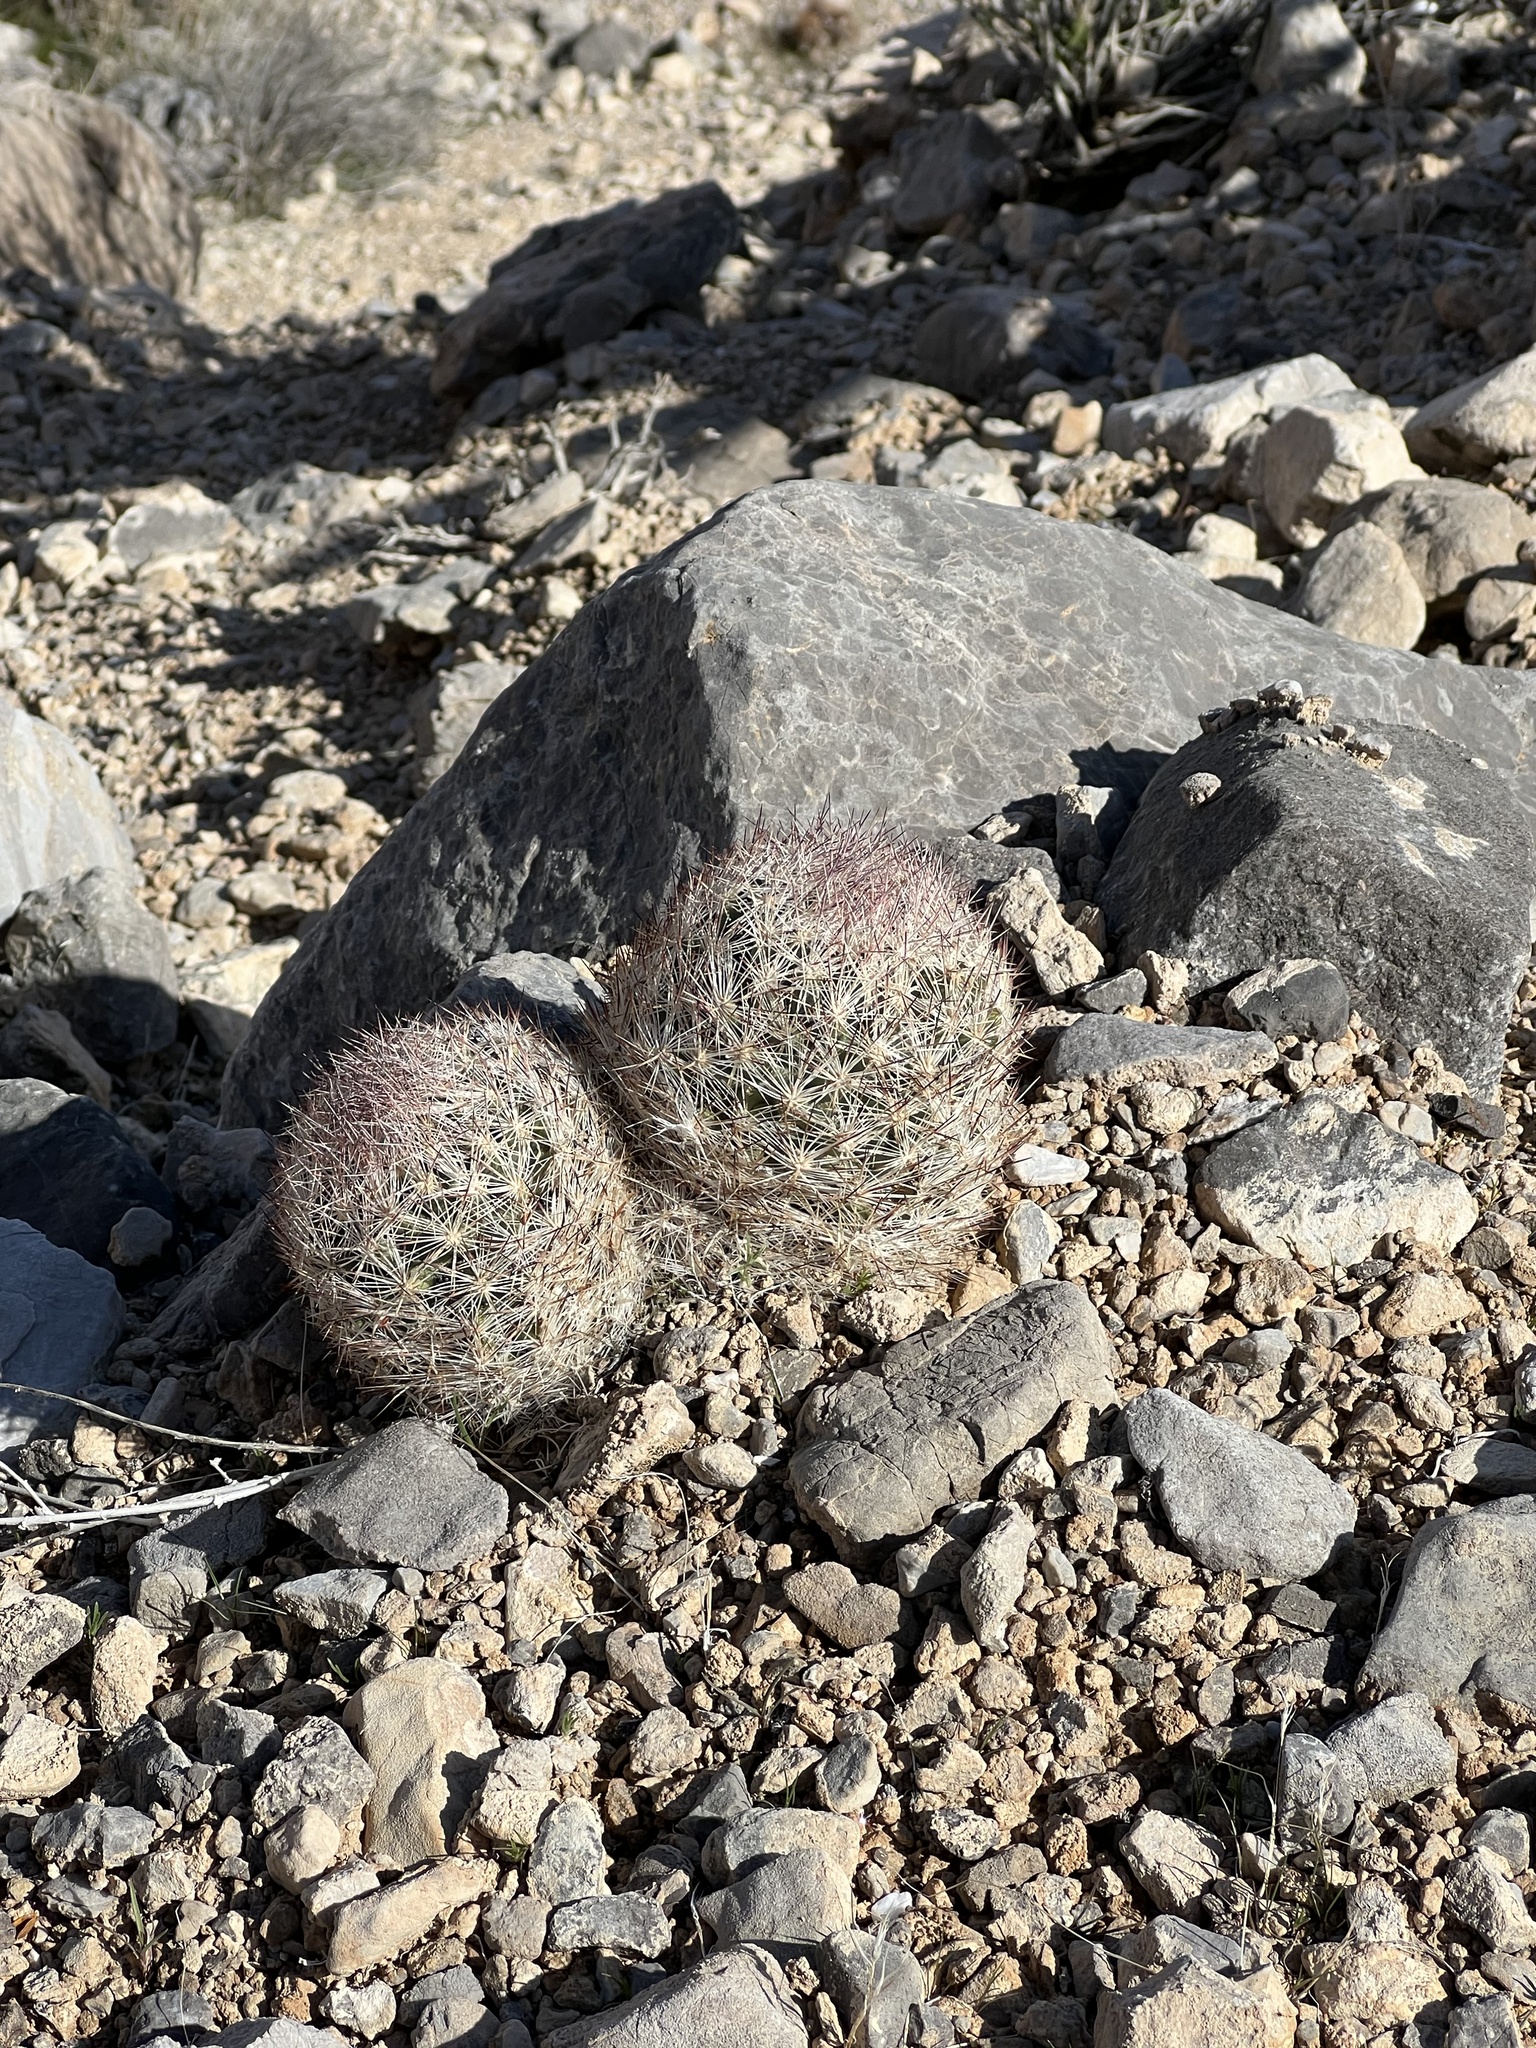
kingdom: Plantae
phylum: Tracheophyta
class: Magnoliopsida
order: Caryophyllales
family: Cactaceae
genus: Pelecyphora
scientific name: Pelecyphora dasyacantha
